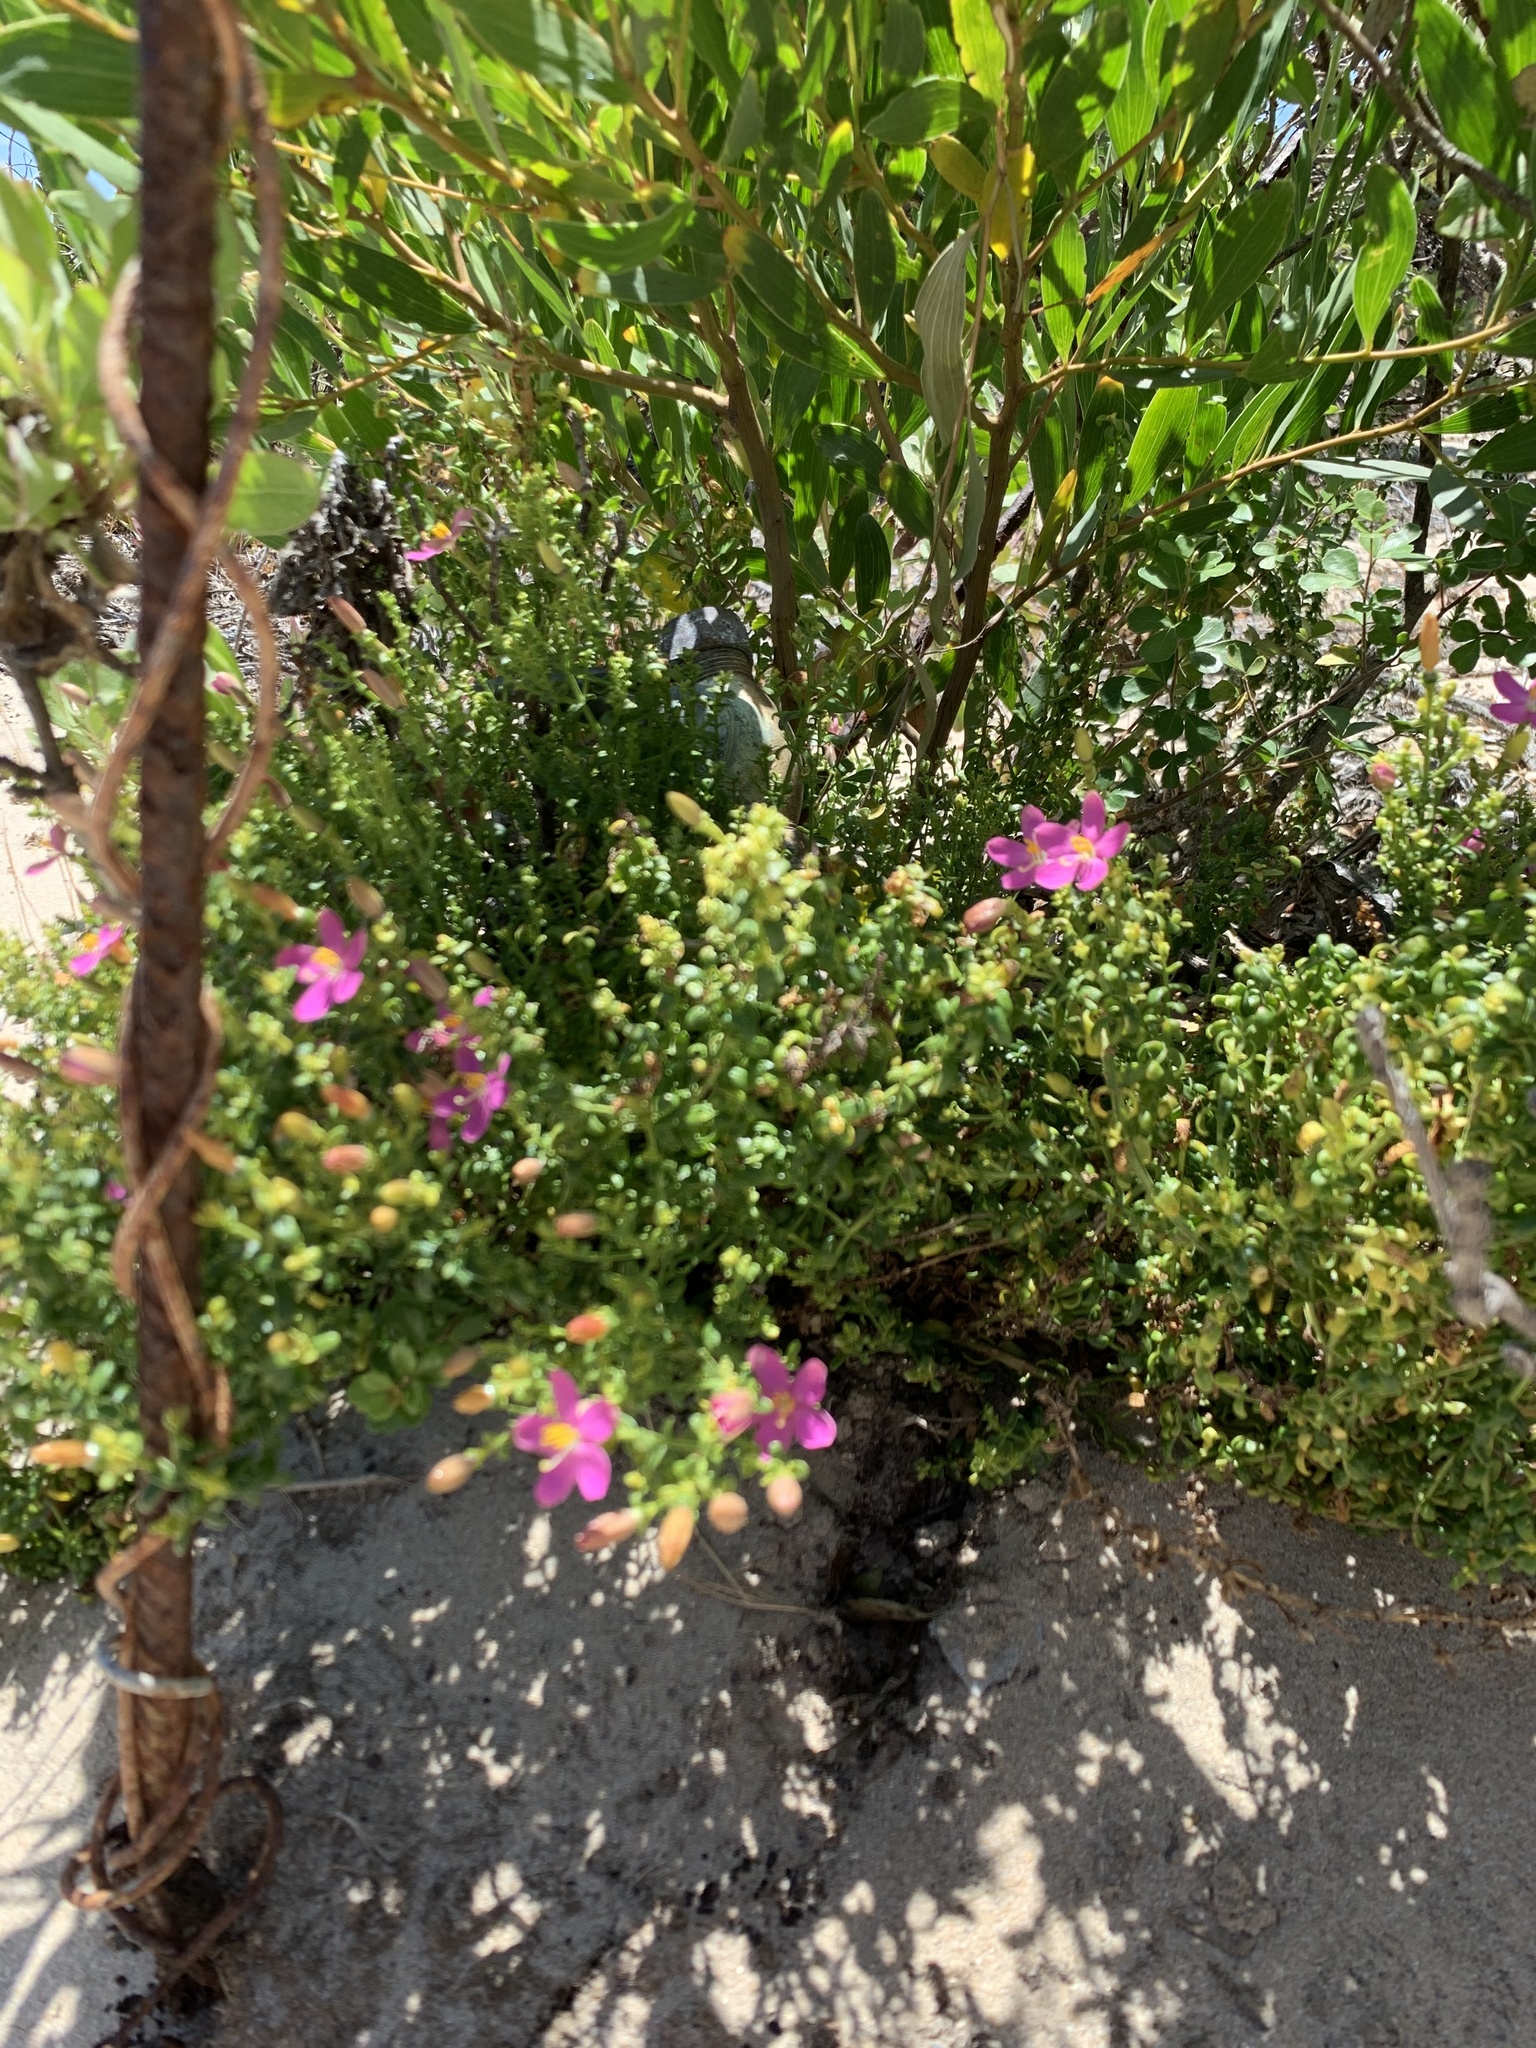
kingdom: Plantae
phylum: Tracheophyta
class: Magnoliopsida
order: Gentianales
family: Gentianaceae
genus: Chironia
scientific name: Chironia baccifera
